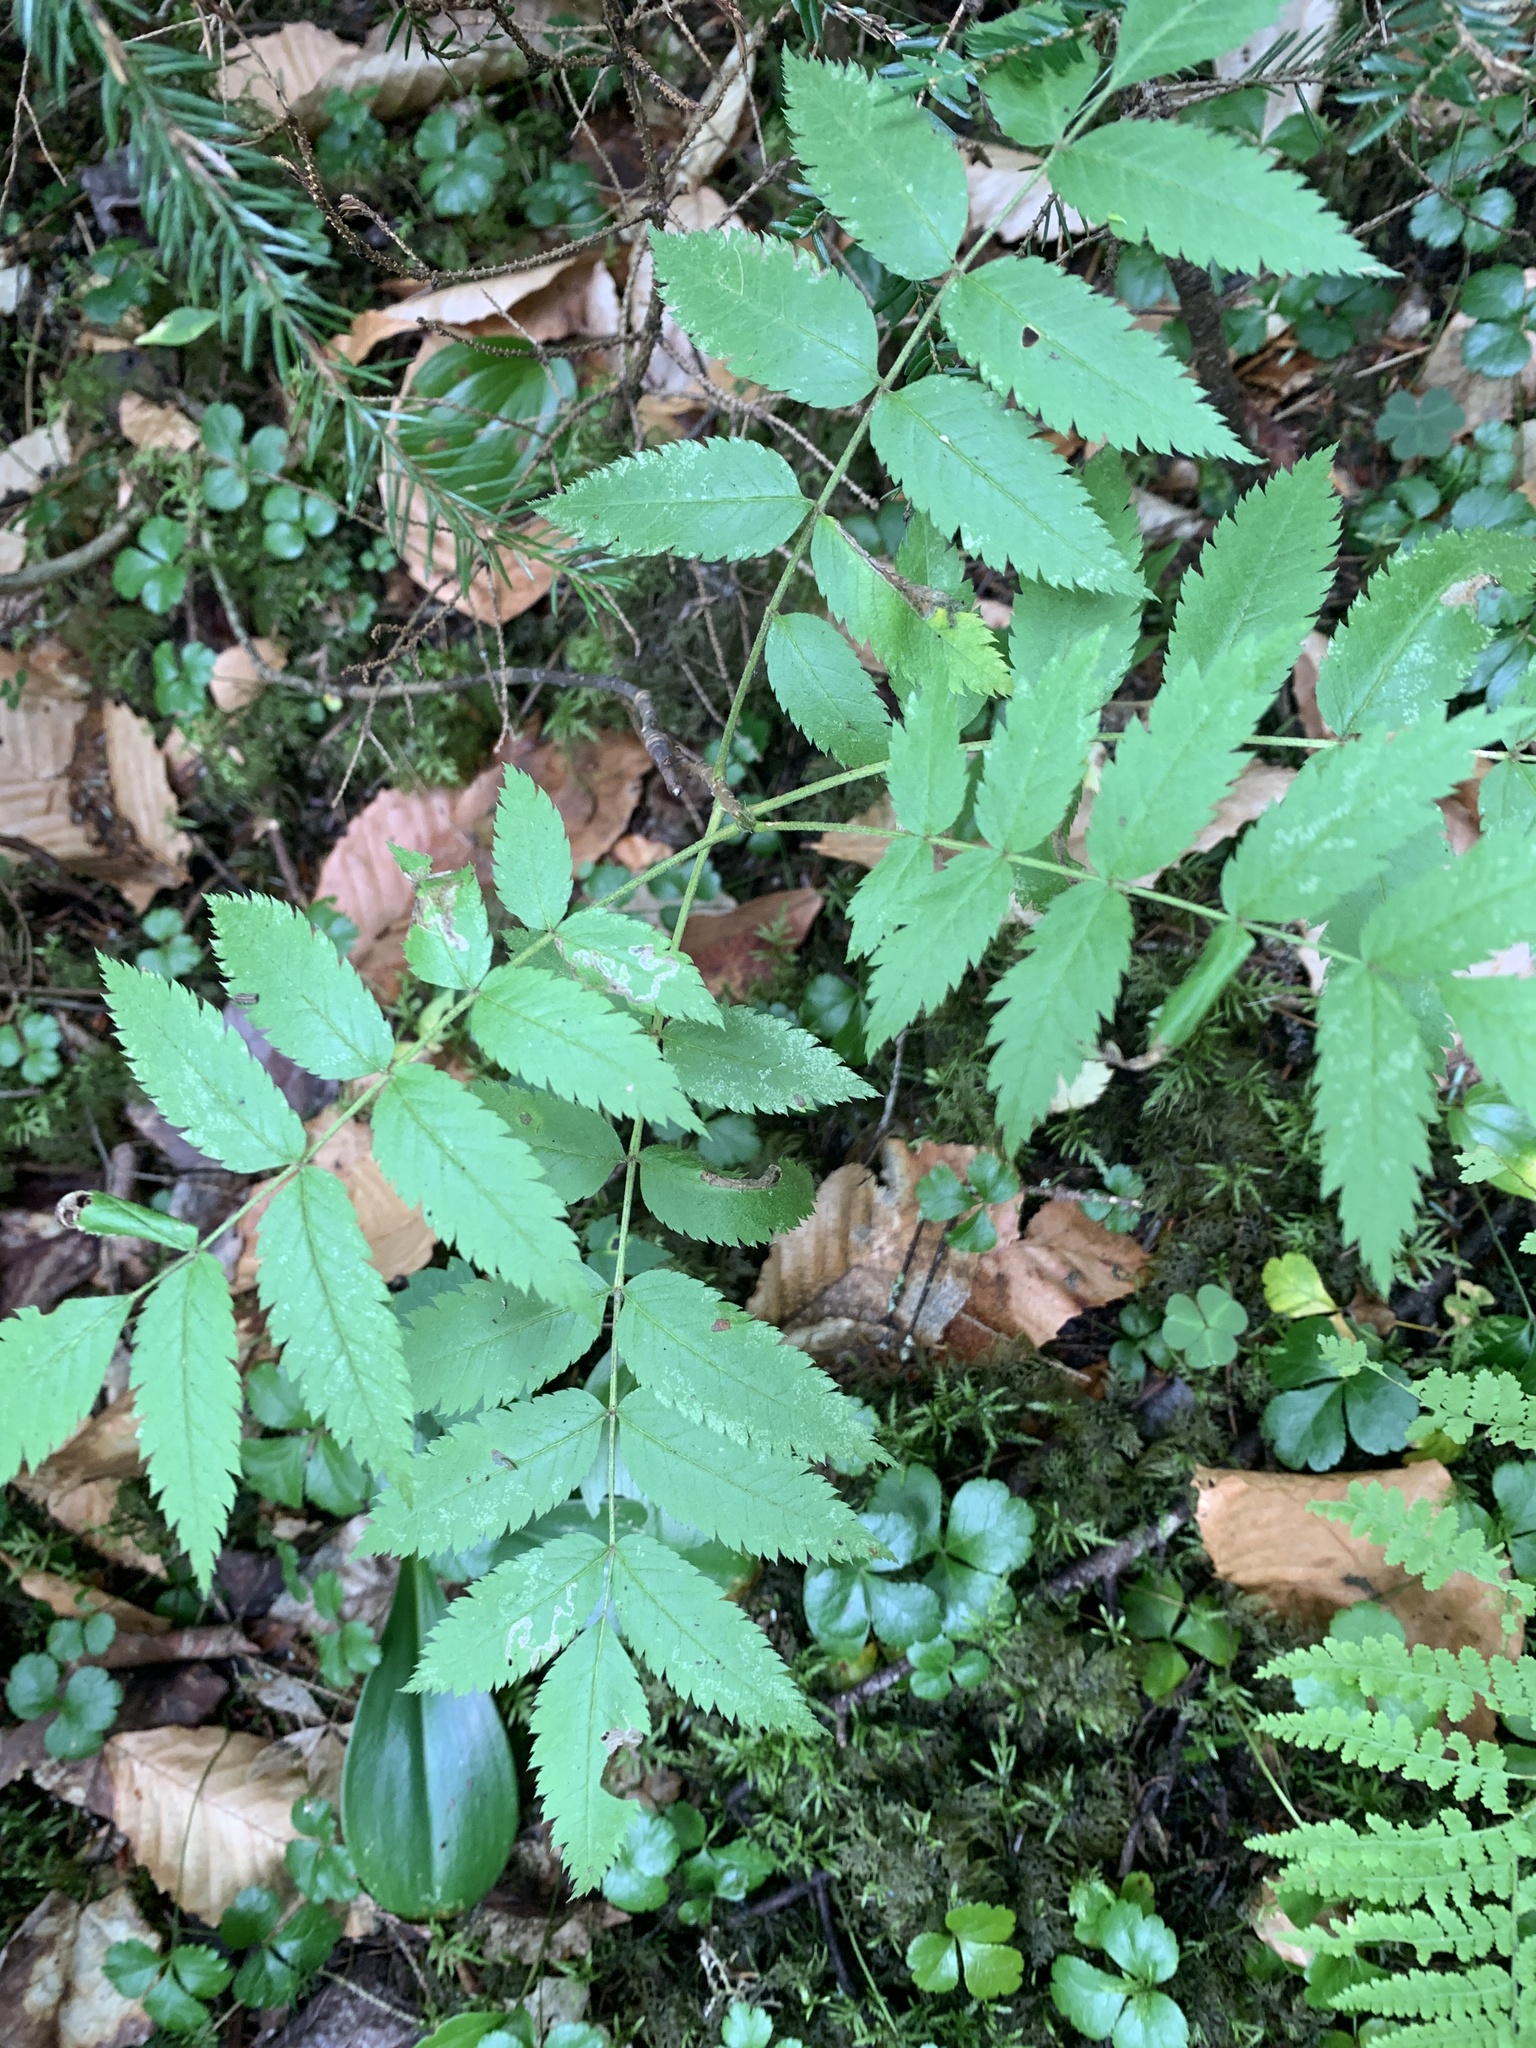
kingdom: Plantae
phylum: Tracheophyta
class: Magnoliopsida
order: Rosales
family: Rosaceae
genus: Sorbus
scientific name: Sorbus americana
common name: American mountain-ash
